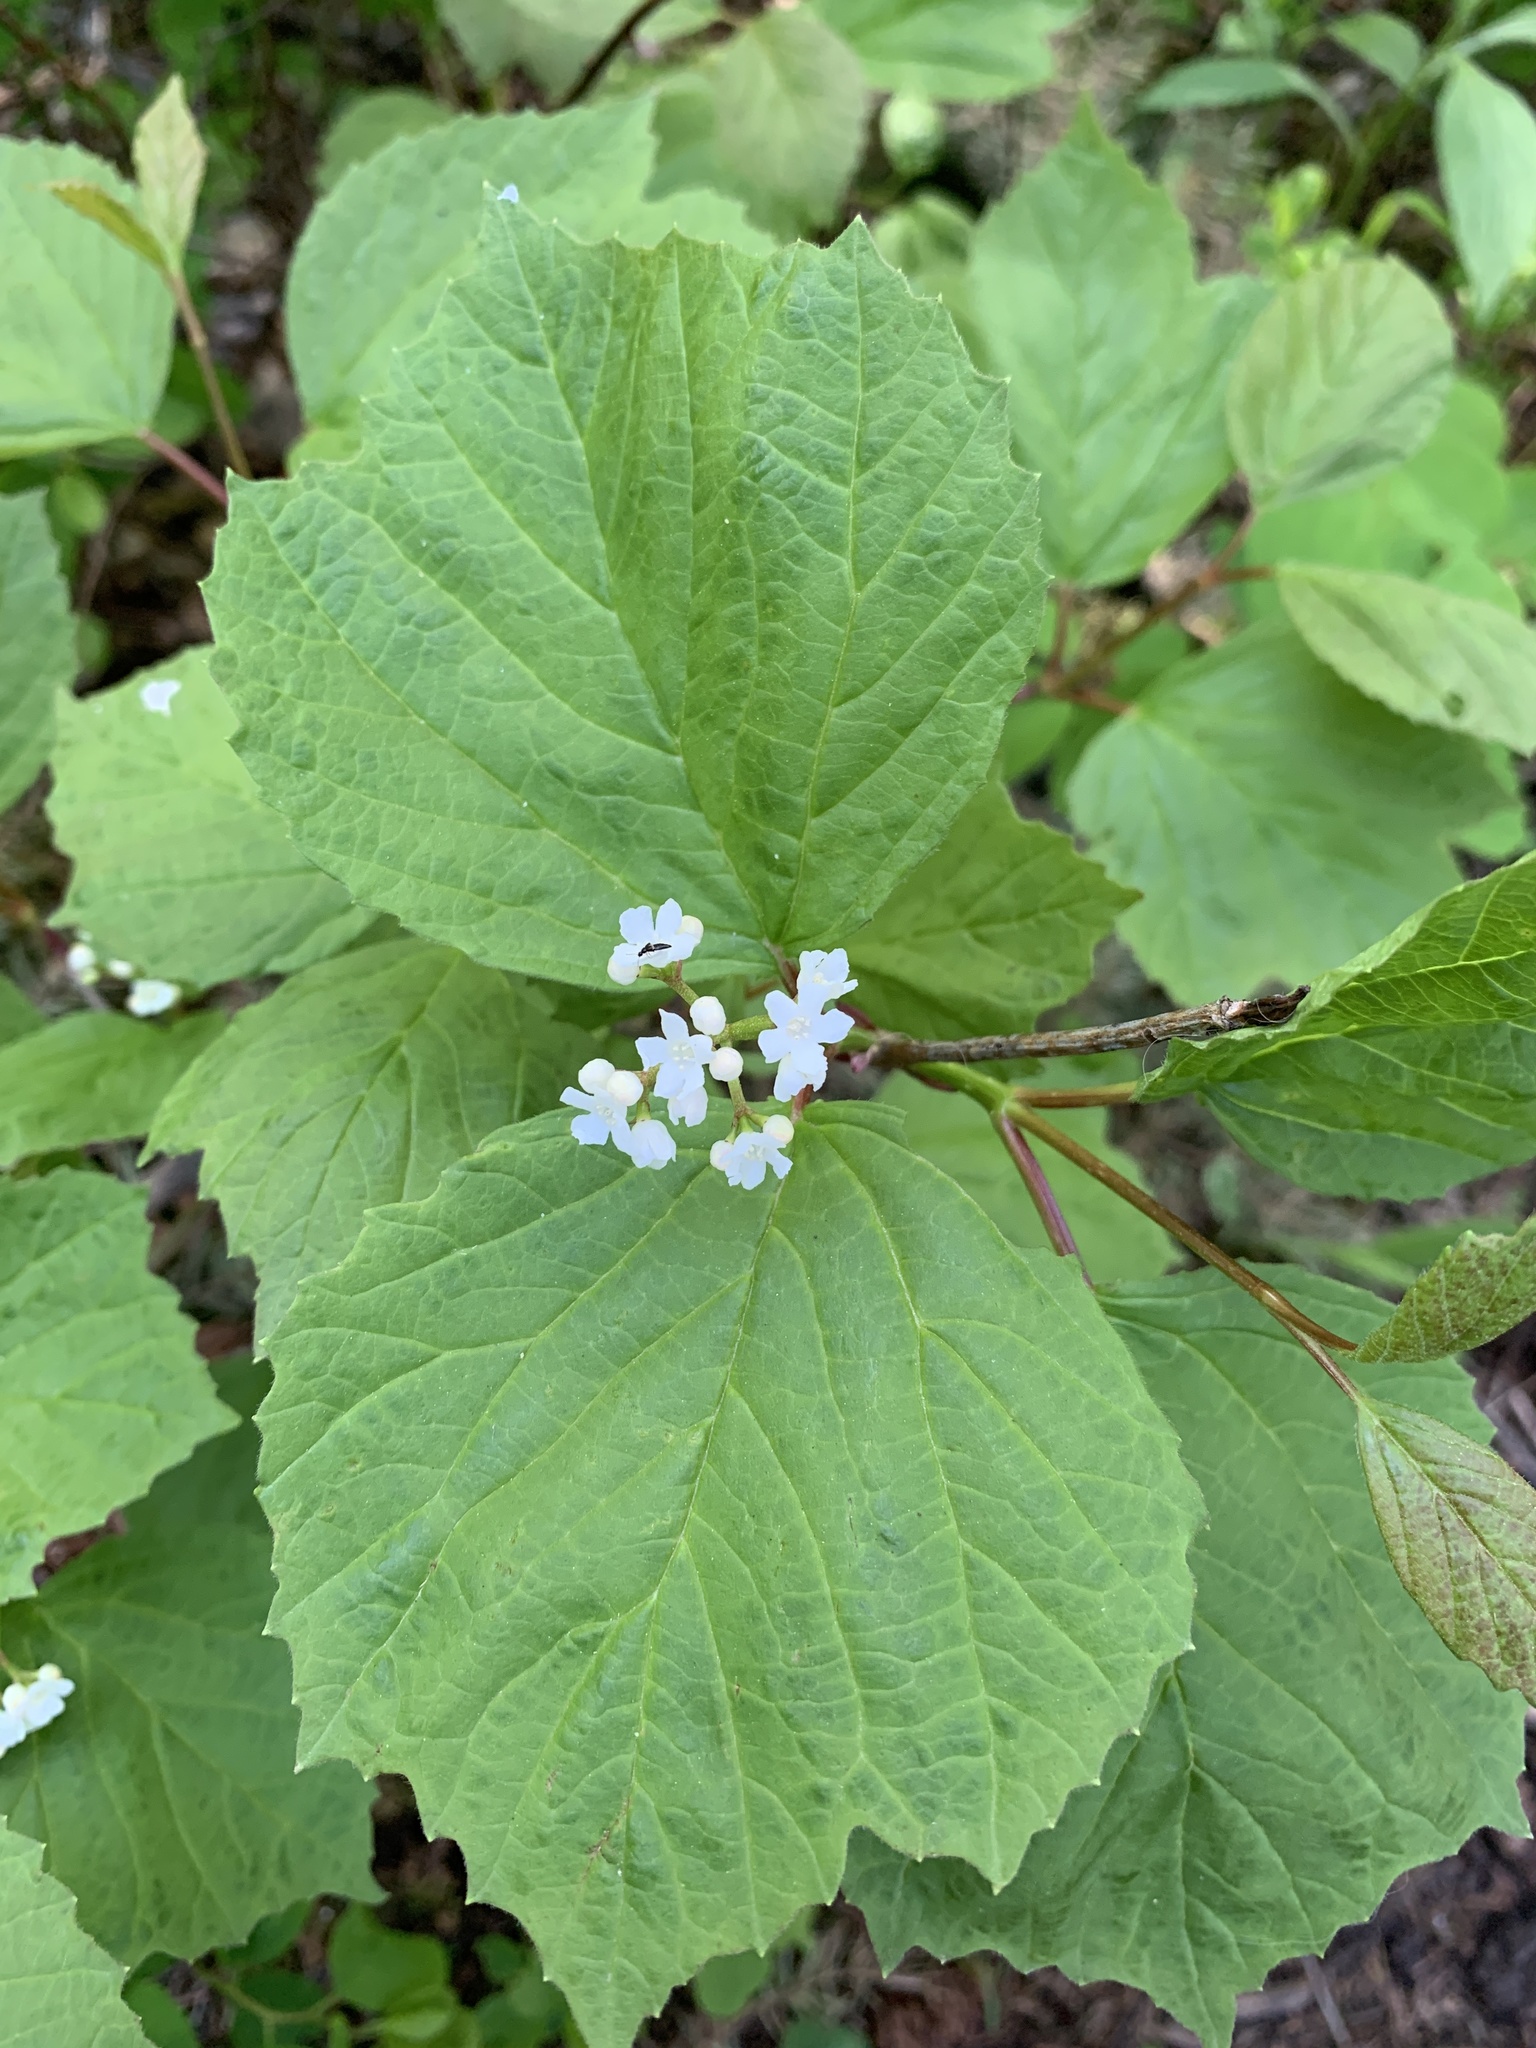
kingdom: Plantae
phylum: Tracheophyta
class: Magnoliopsida
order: Dipsacales
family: Viburnaceae
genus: Viburnum
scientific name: Viburnum edule
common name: Mooseberry
